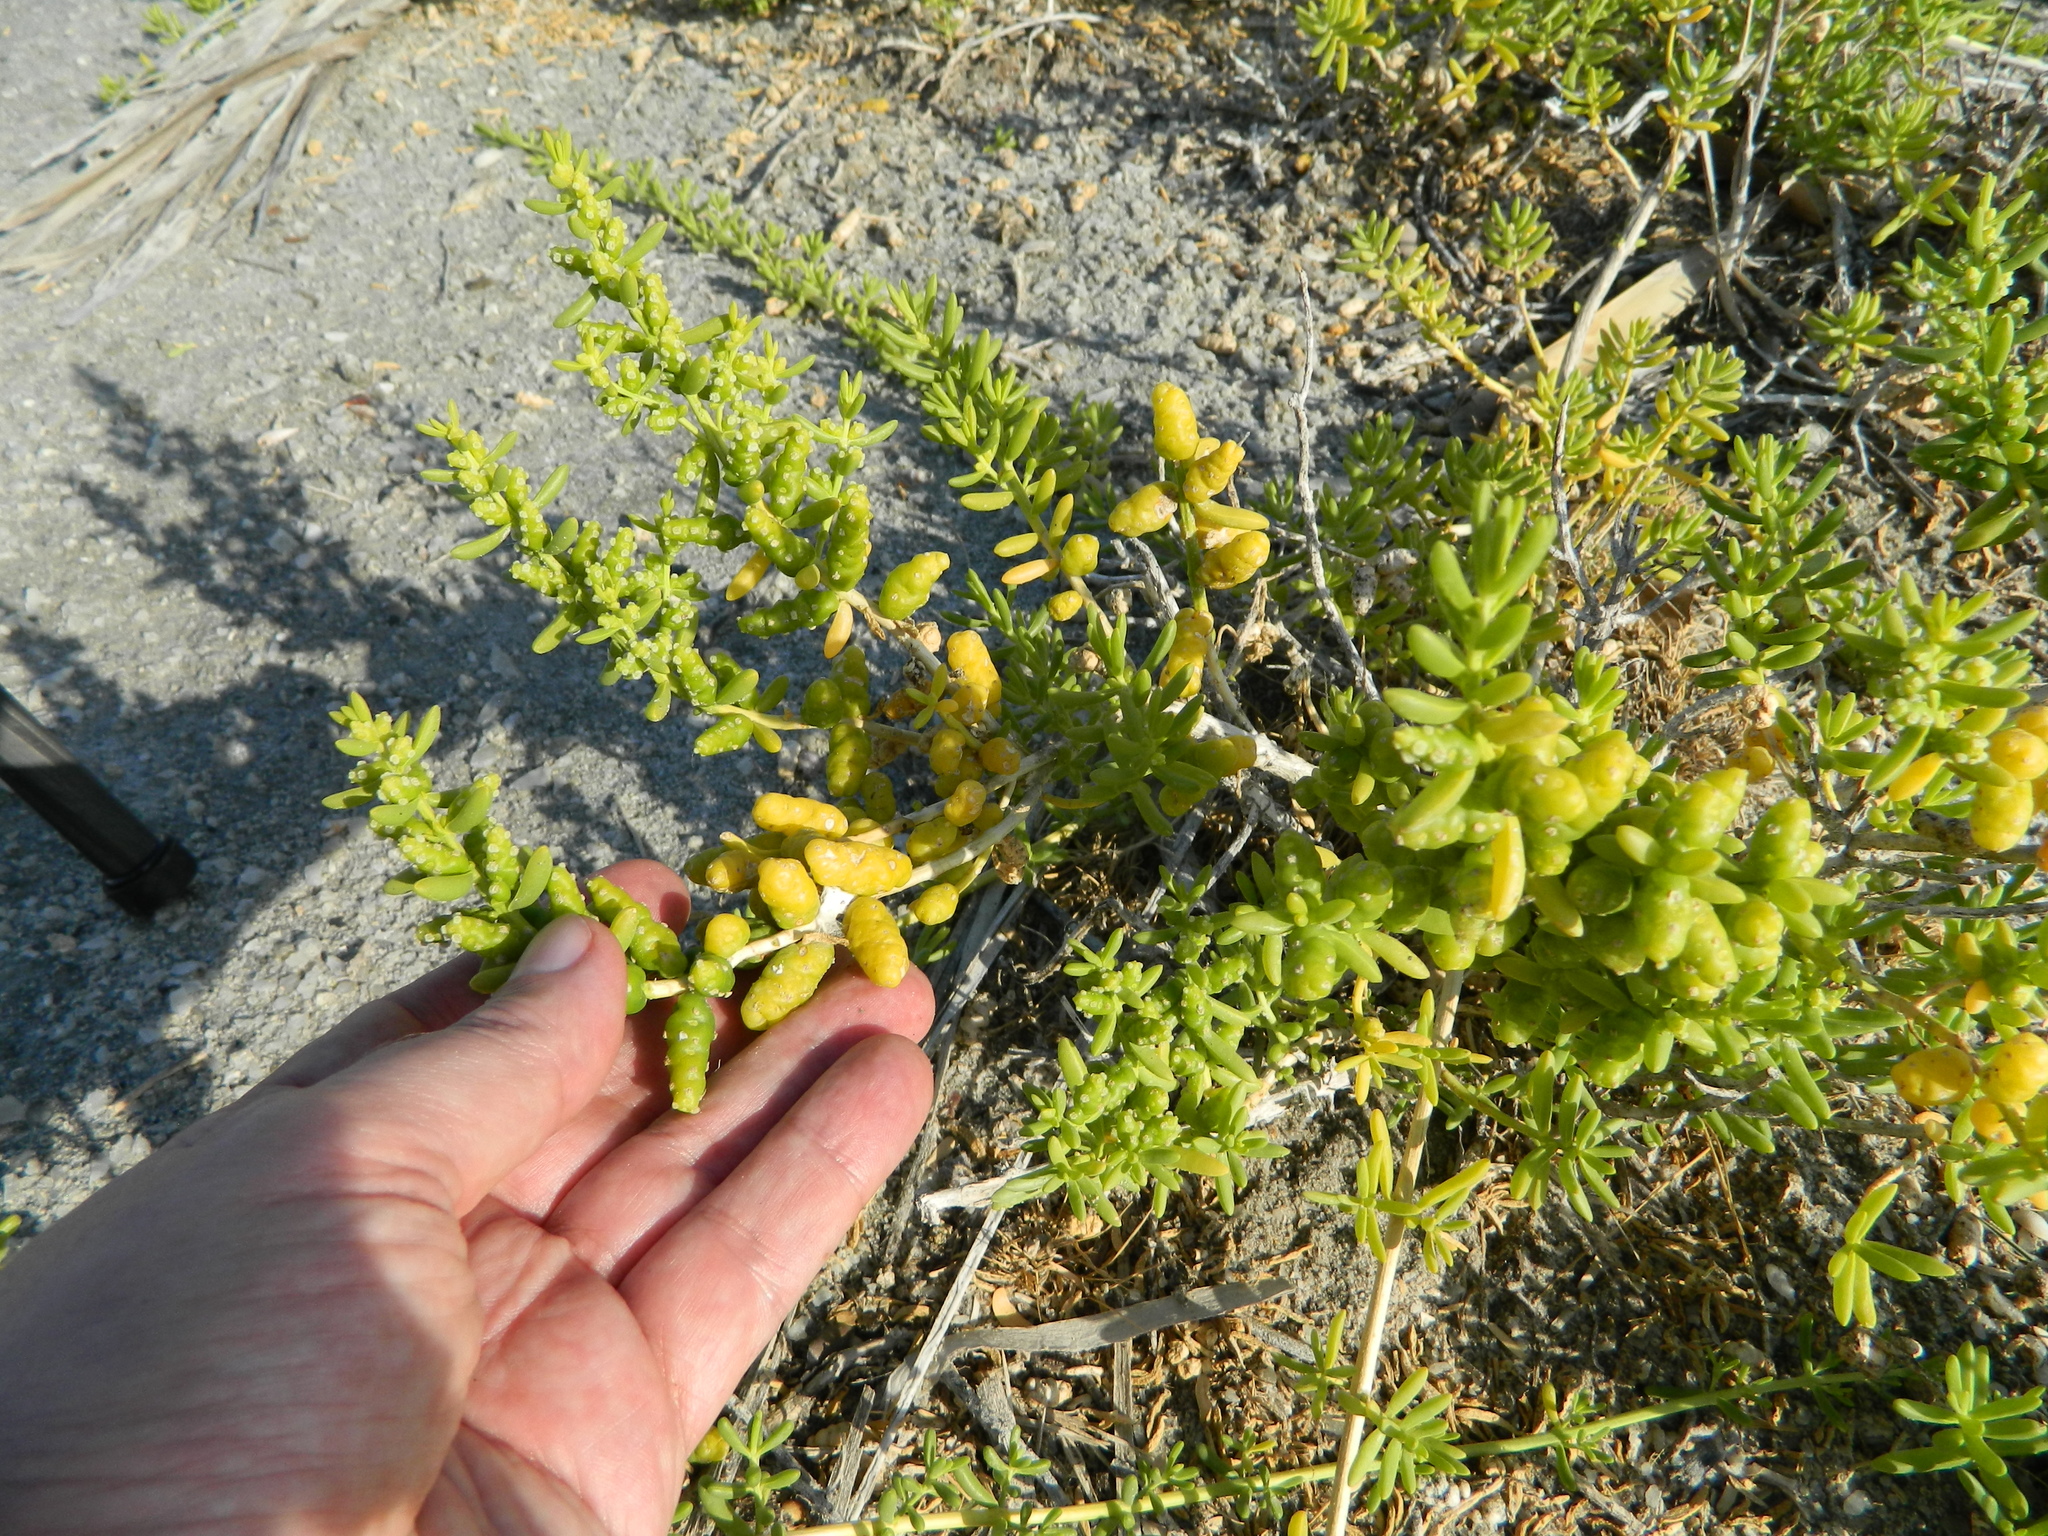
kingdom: Plantae
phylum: Tracheophyta
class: Magnoliopsida
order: Brassicales
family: Bataceae
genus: Batis
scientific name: Batis maritima
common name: Turtleweed
